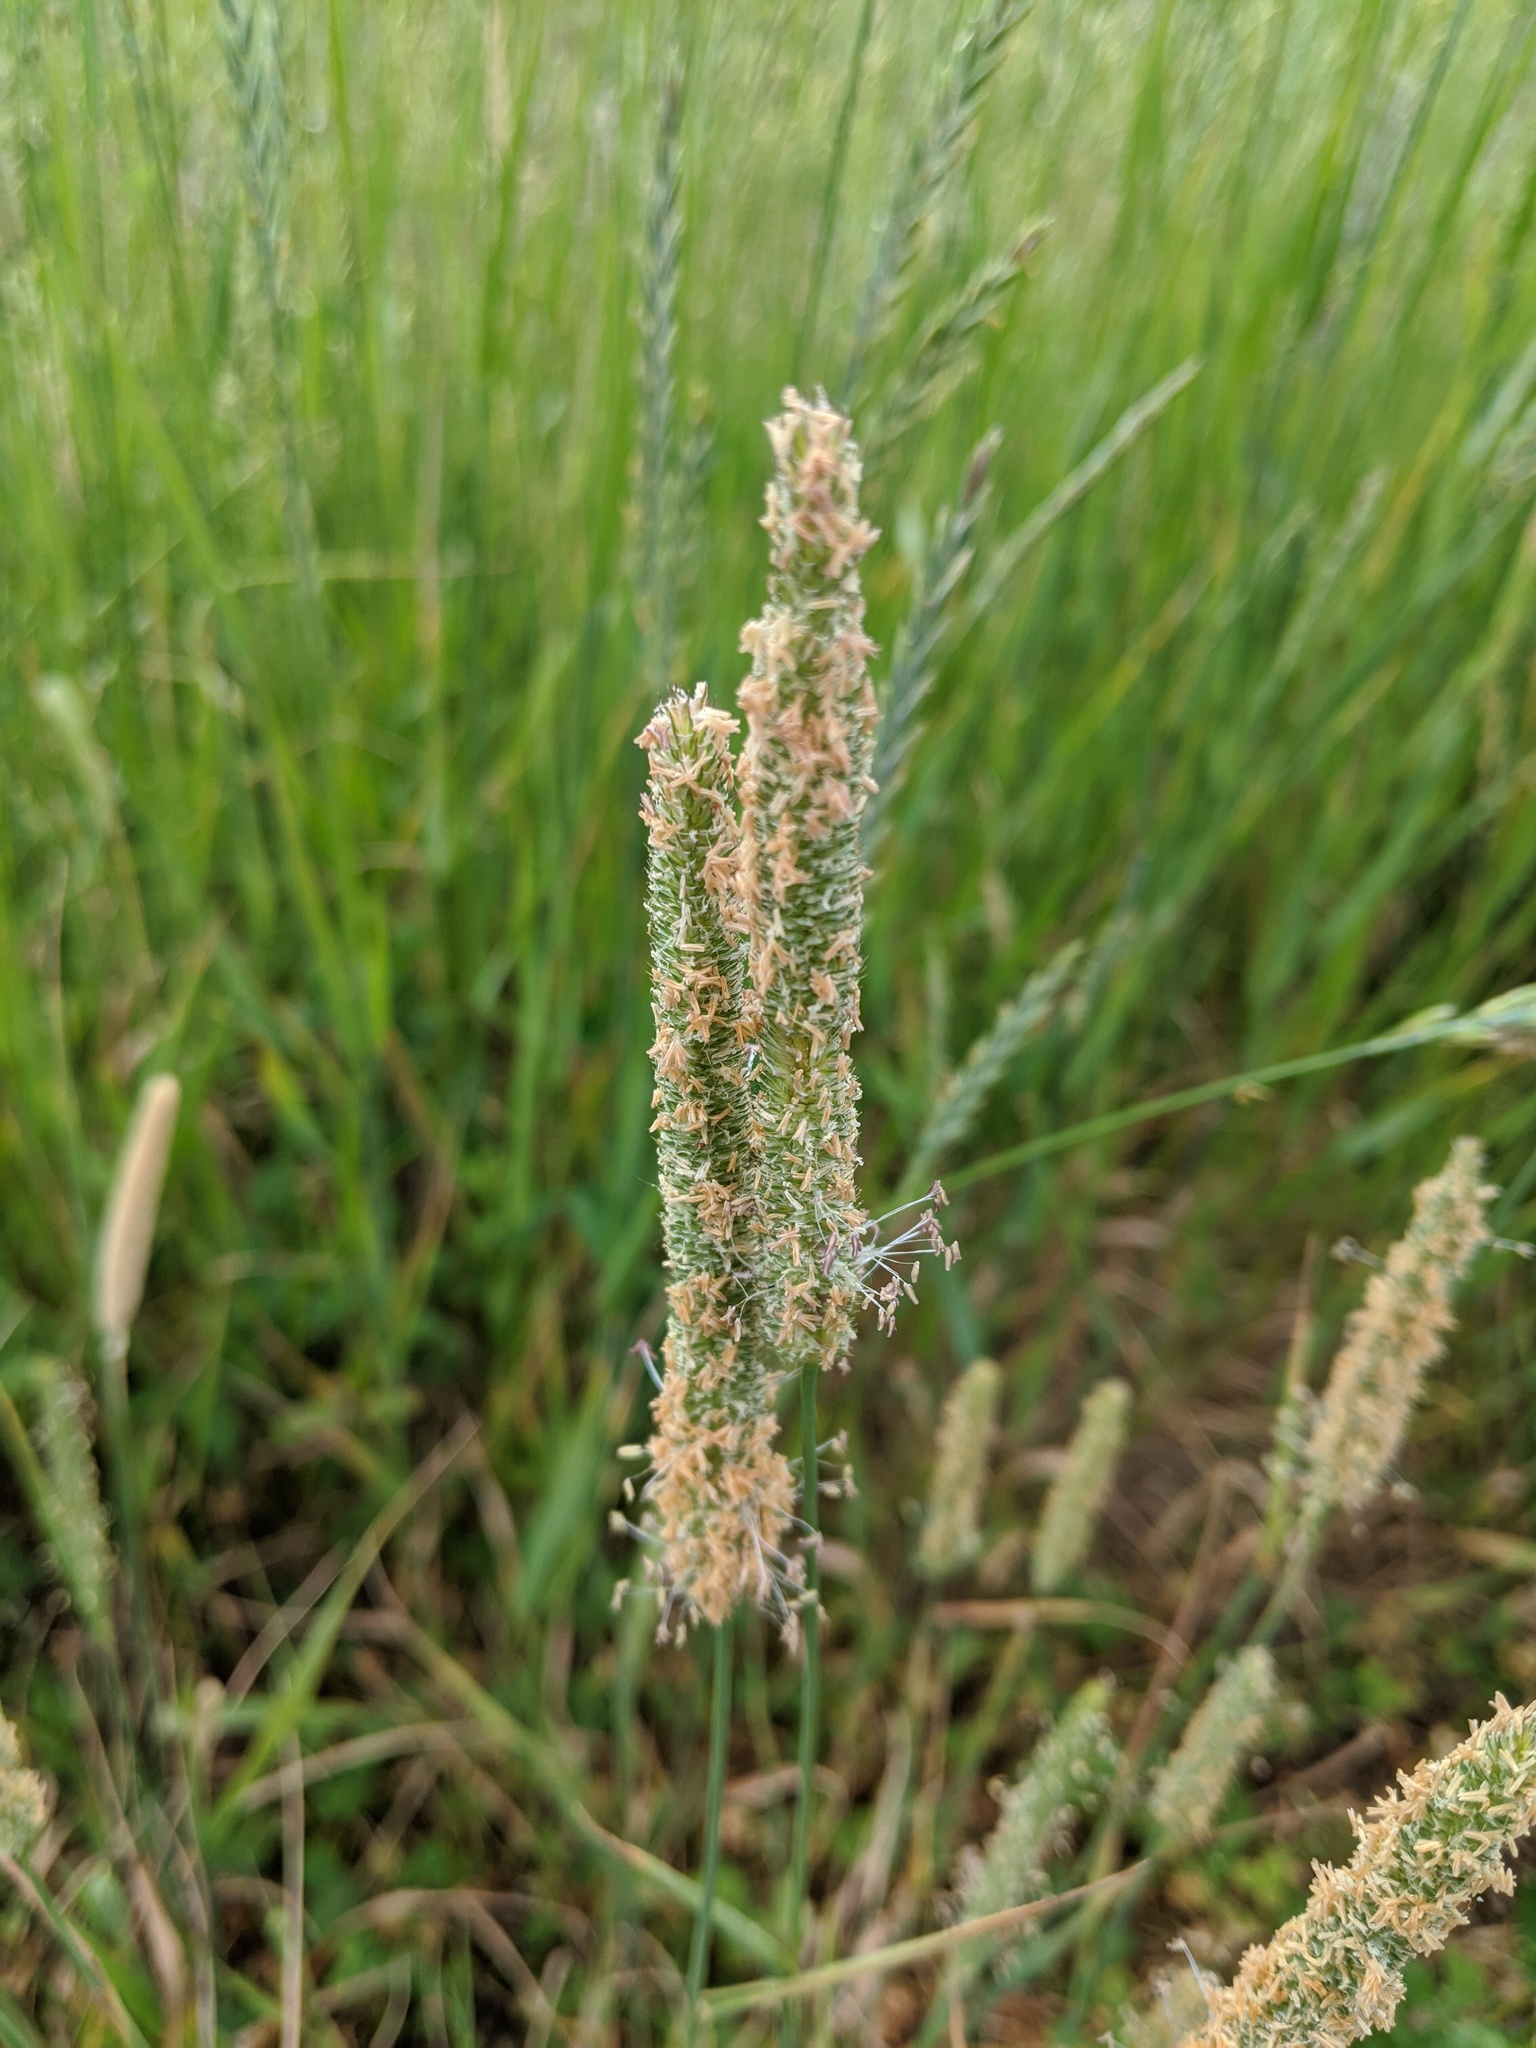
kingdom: Plantae
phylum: Tracheophyta
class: Liliopsida
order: Poales
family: Poaceae
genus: Phleum
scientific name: Phleum pratense
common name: Timothy grass
